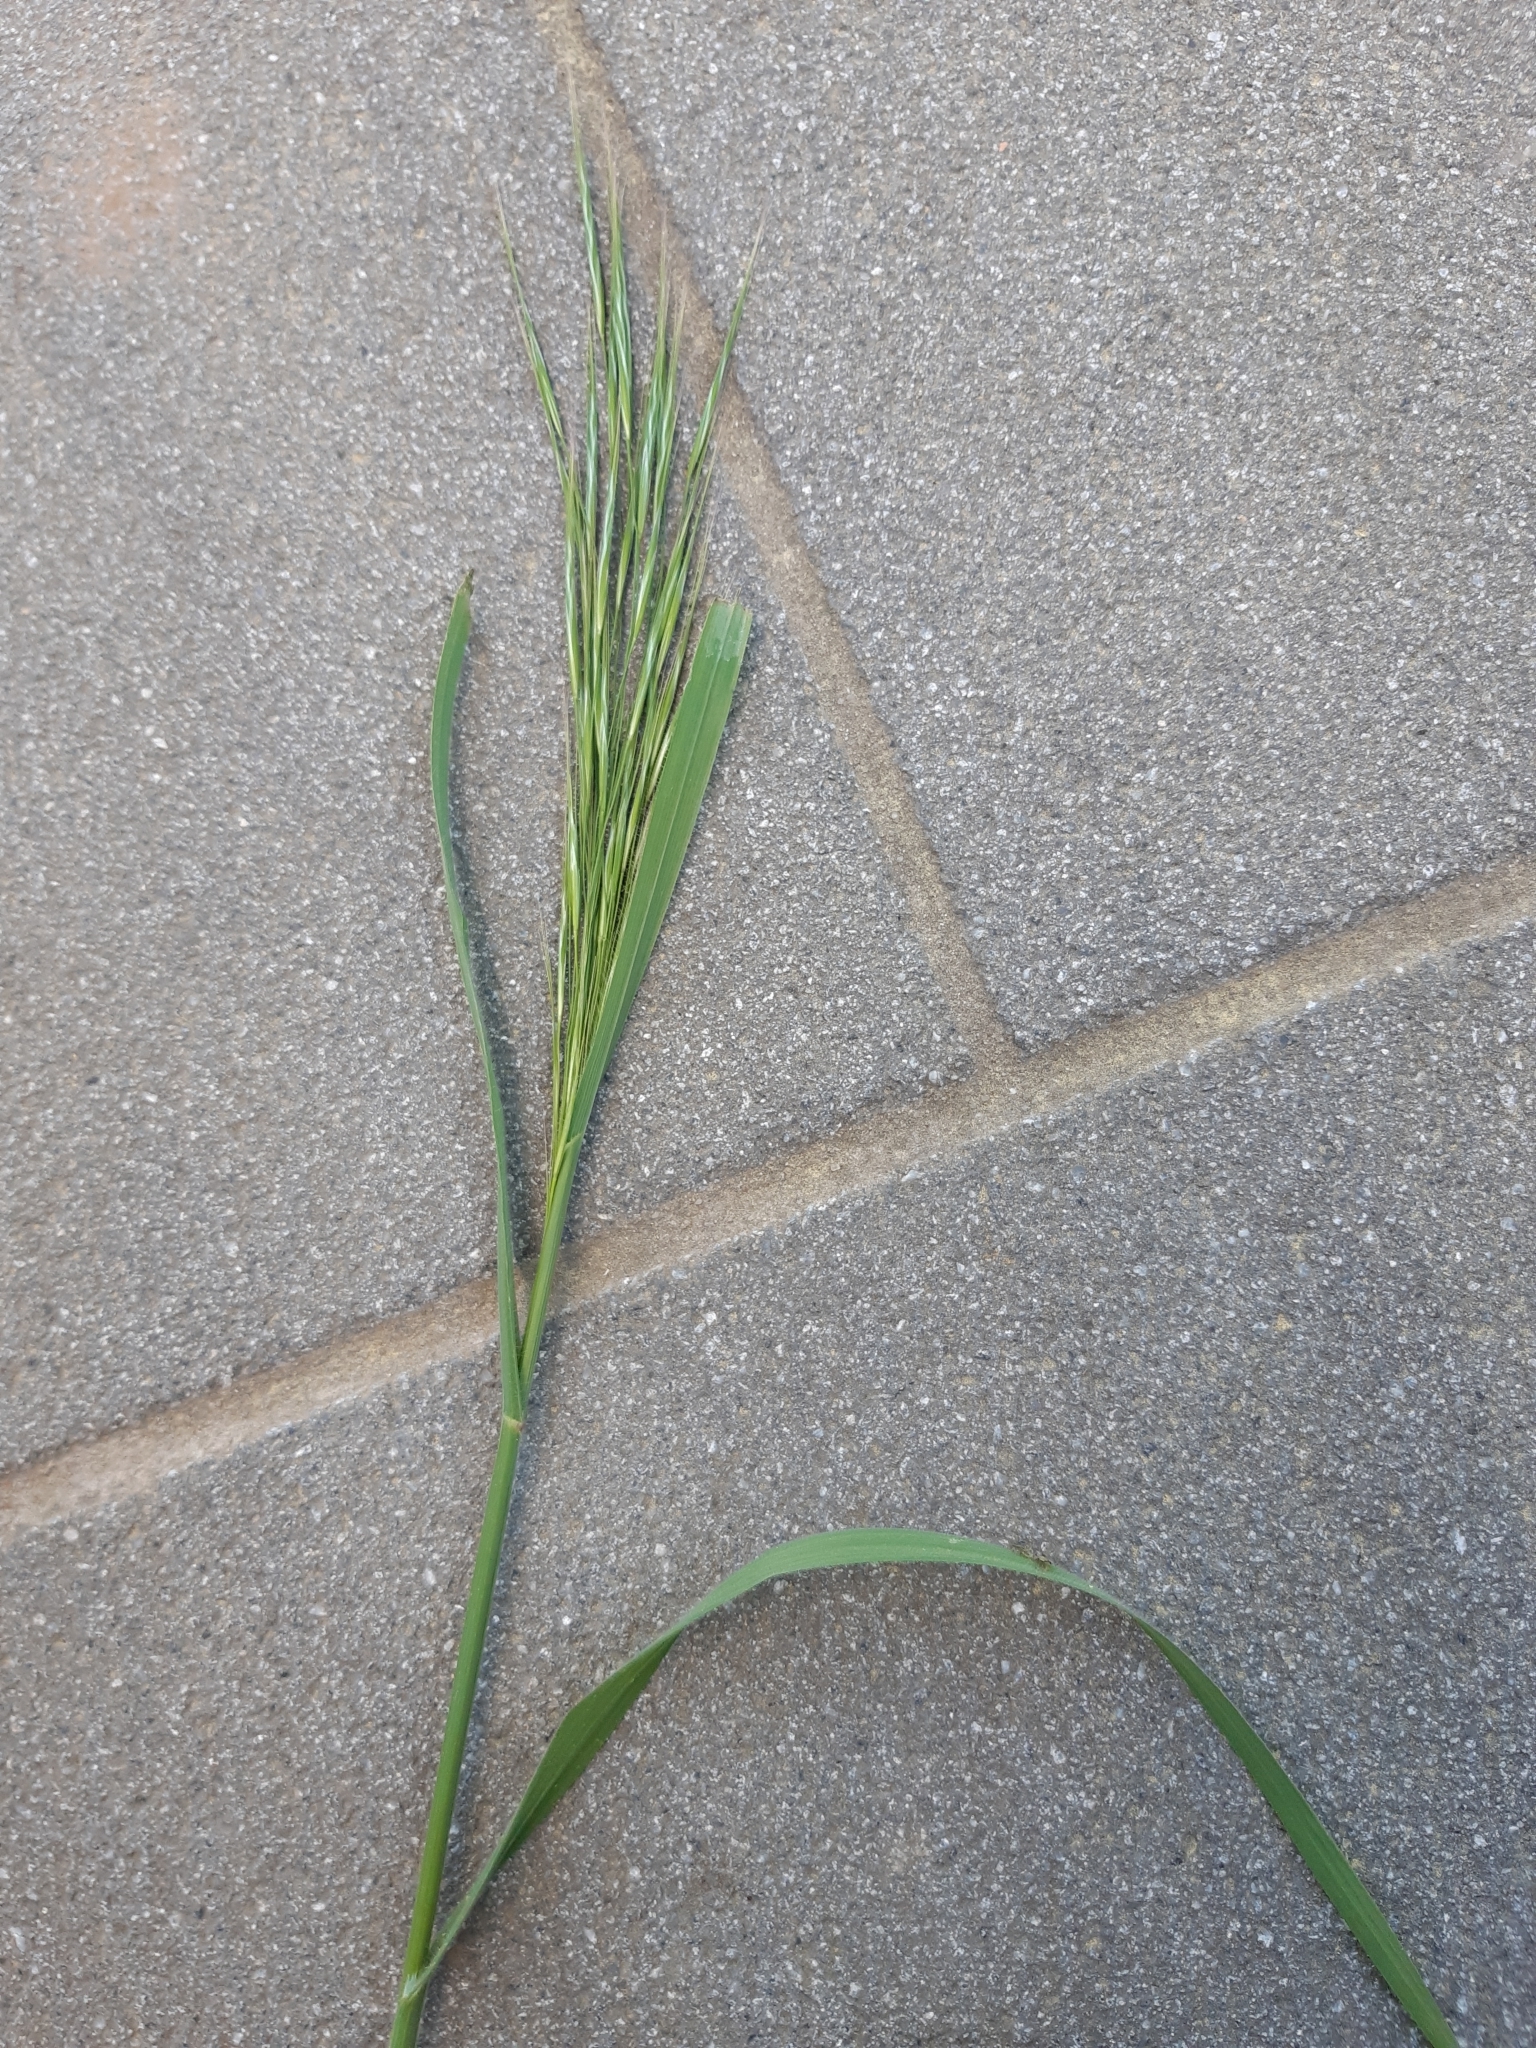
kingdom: Plantae
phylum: Tracheophyta
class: Liliopsida
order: Poales
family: Poaceae
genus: Bromus
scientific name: Bromus sterilis
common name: Poverty brome
